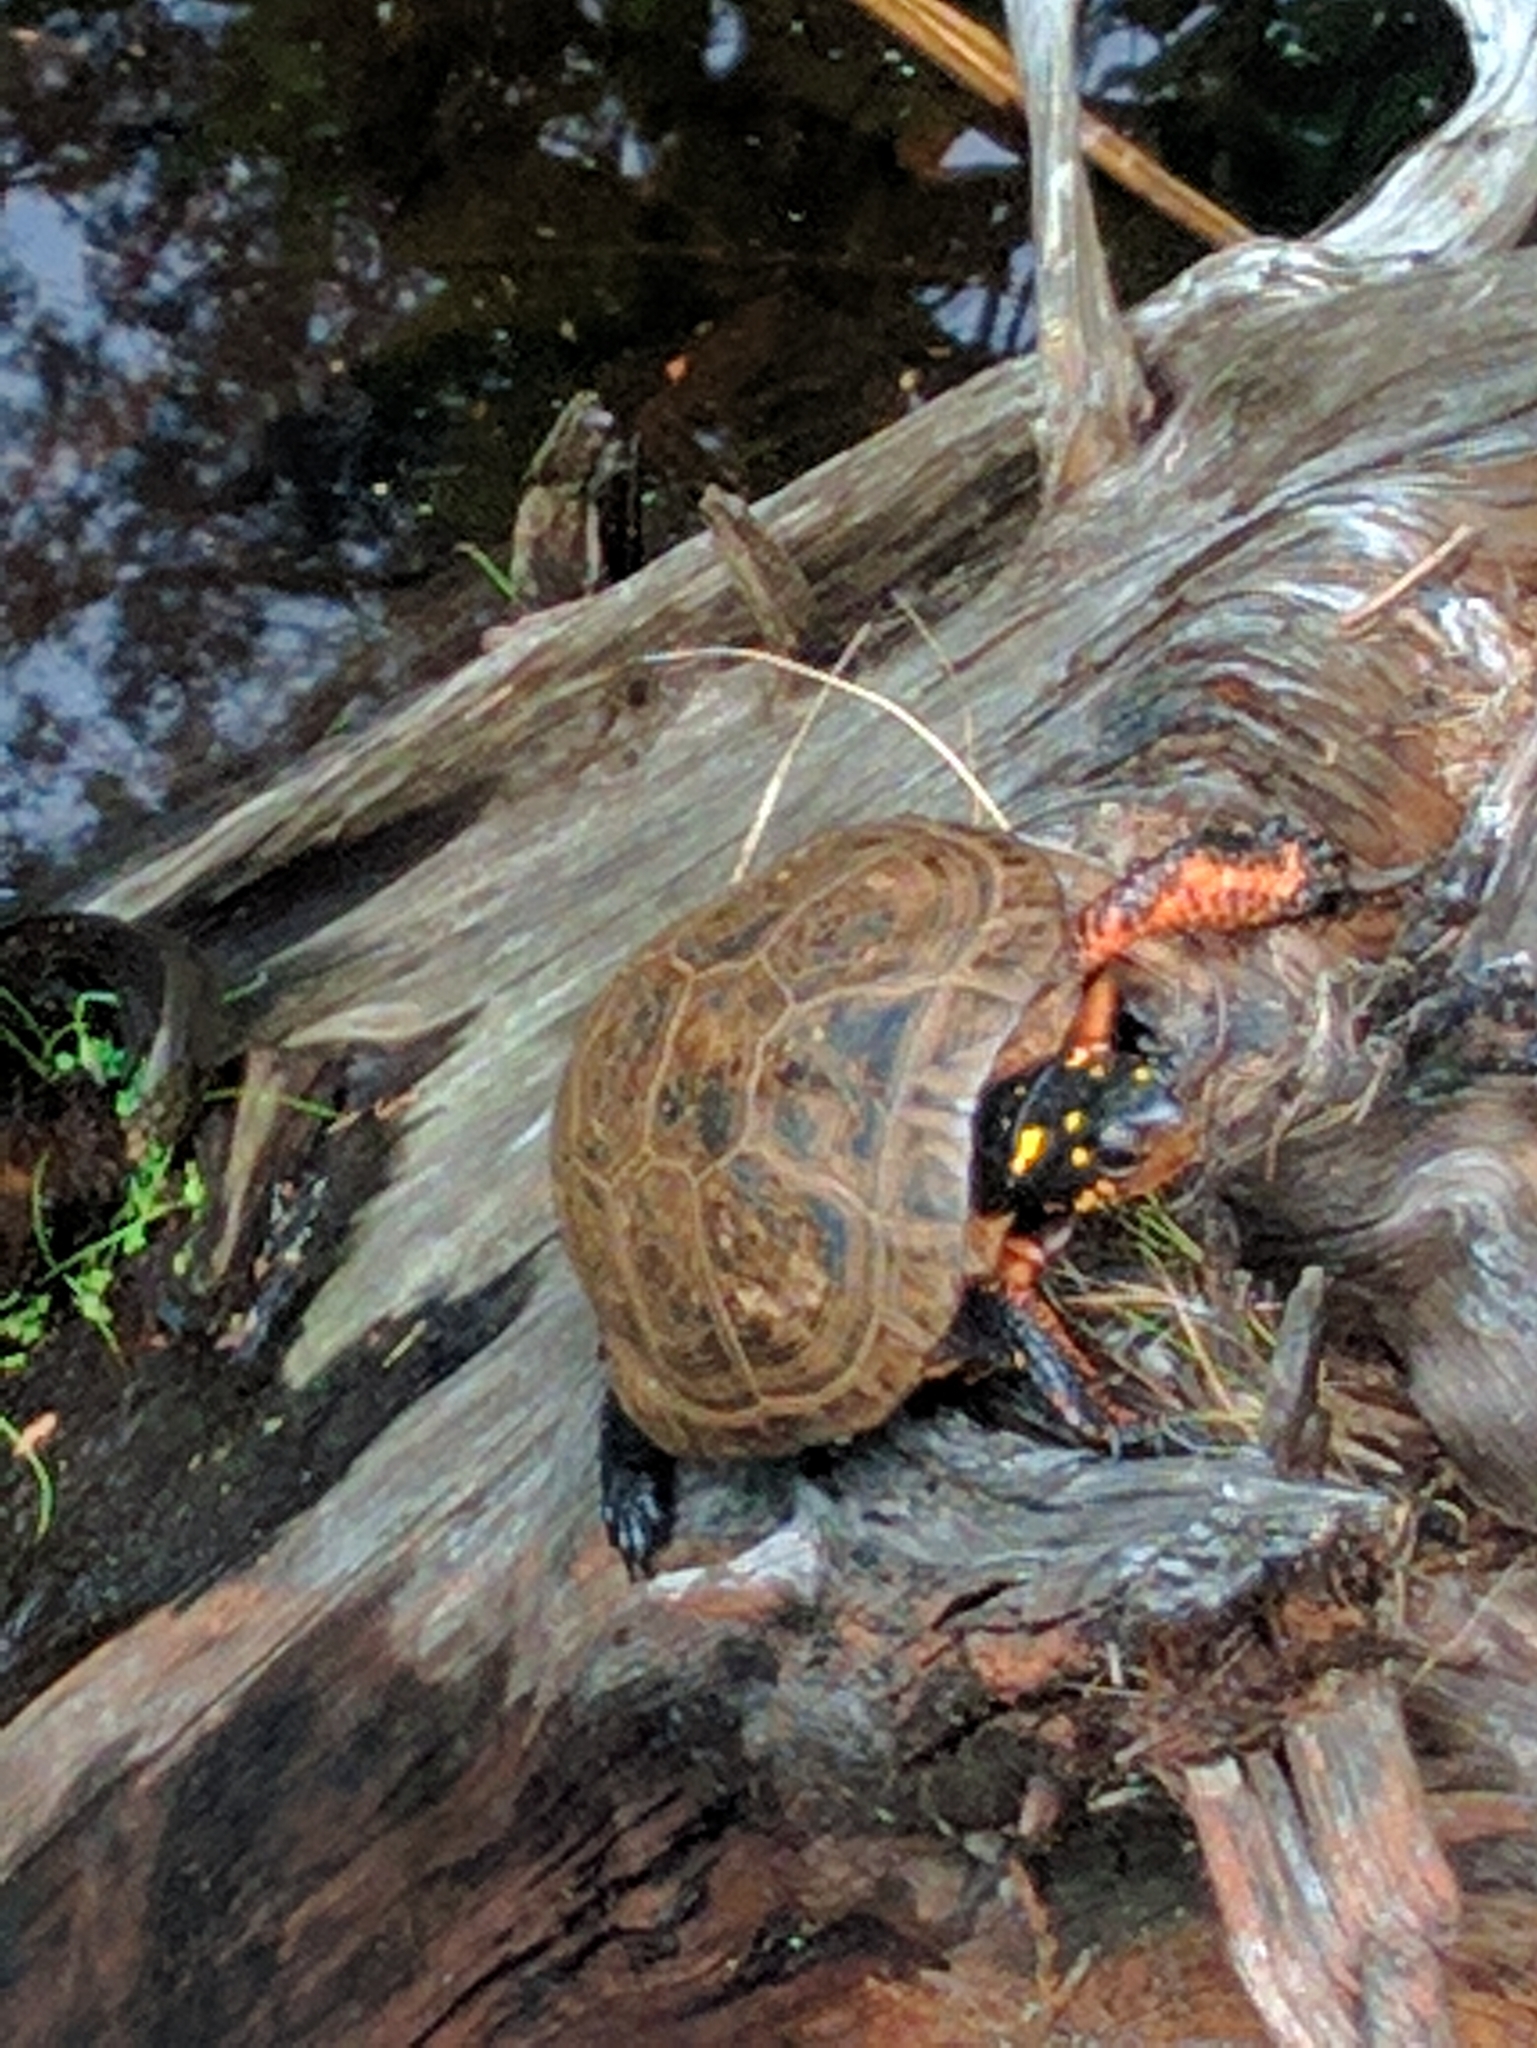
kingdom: Animalia
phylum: Chordata
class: Testudines
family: Emydidae
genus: Clemmys
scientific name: Clemmys guttata
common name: Spotted turtle
